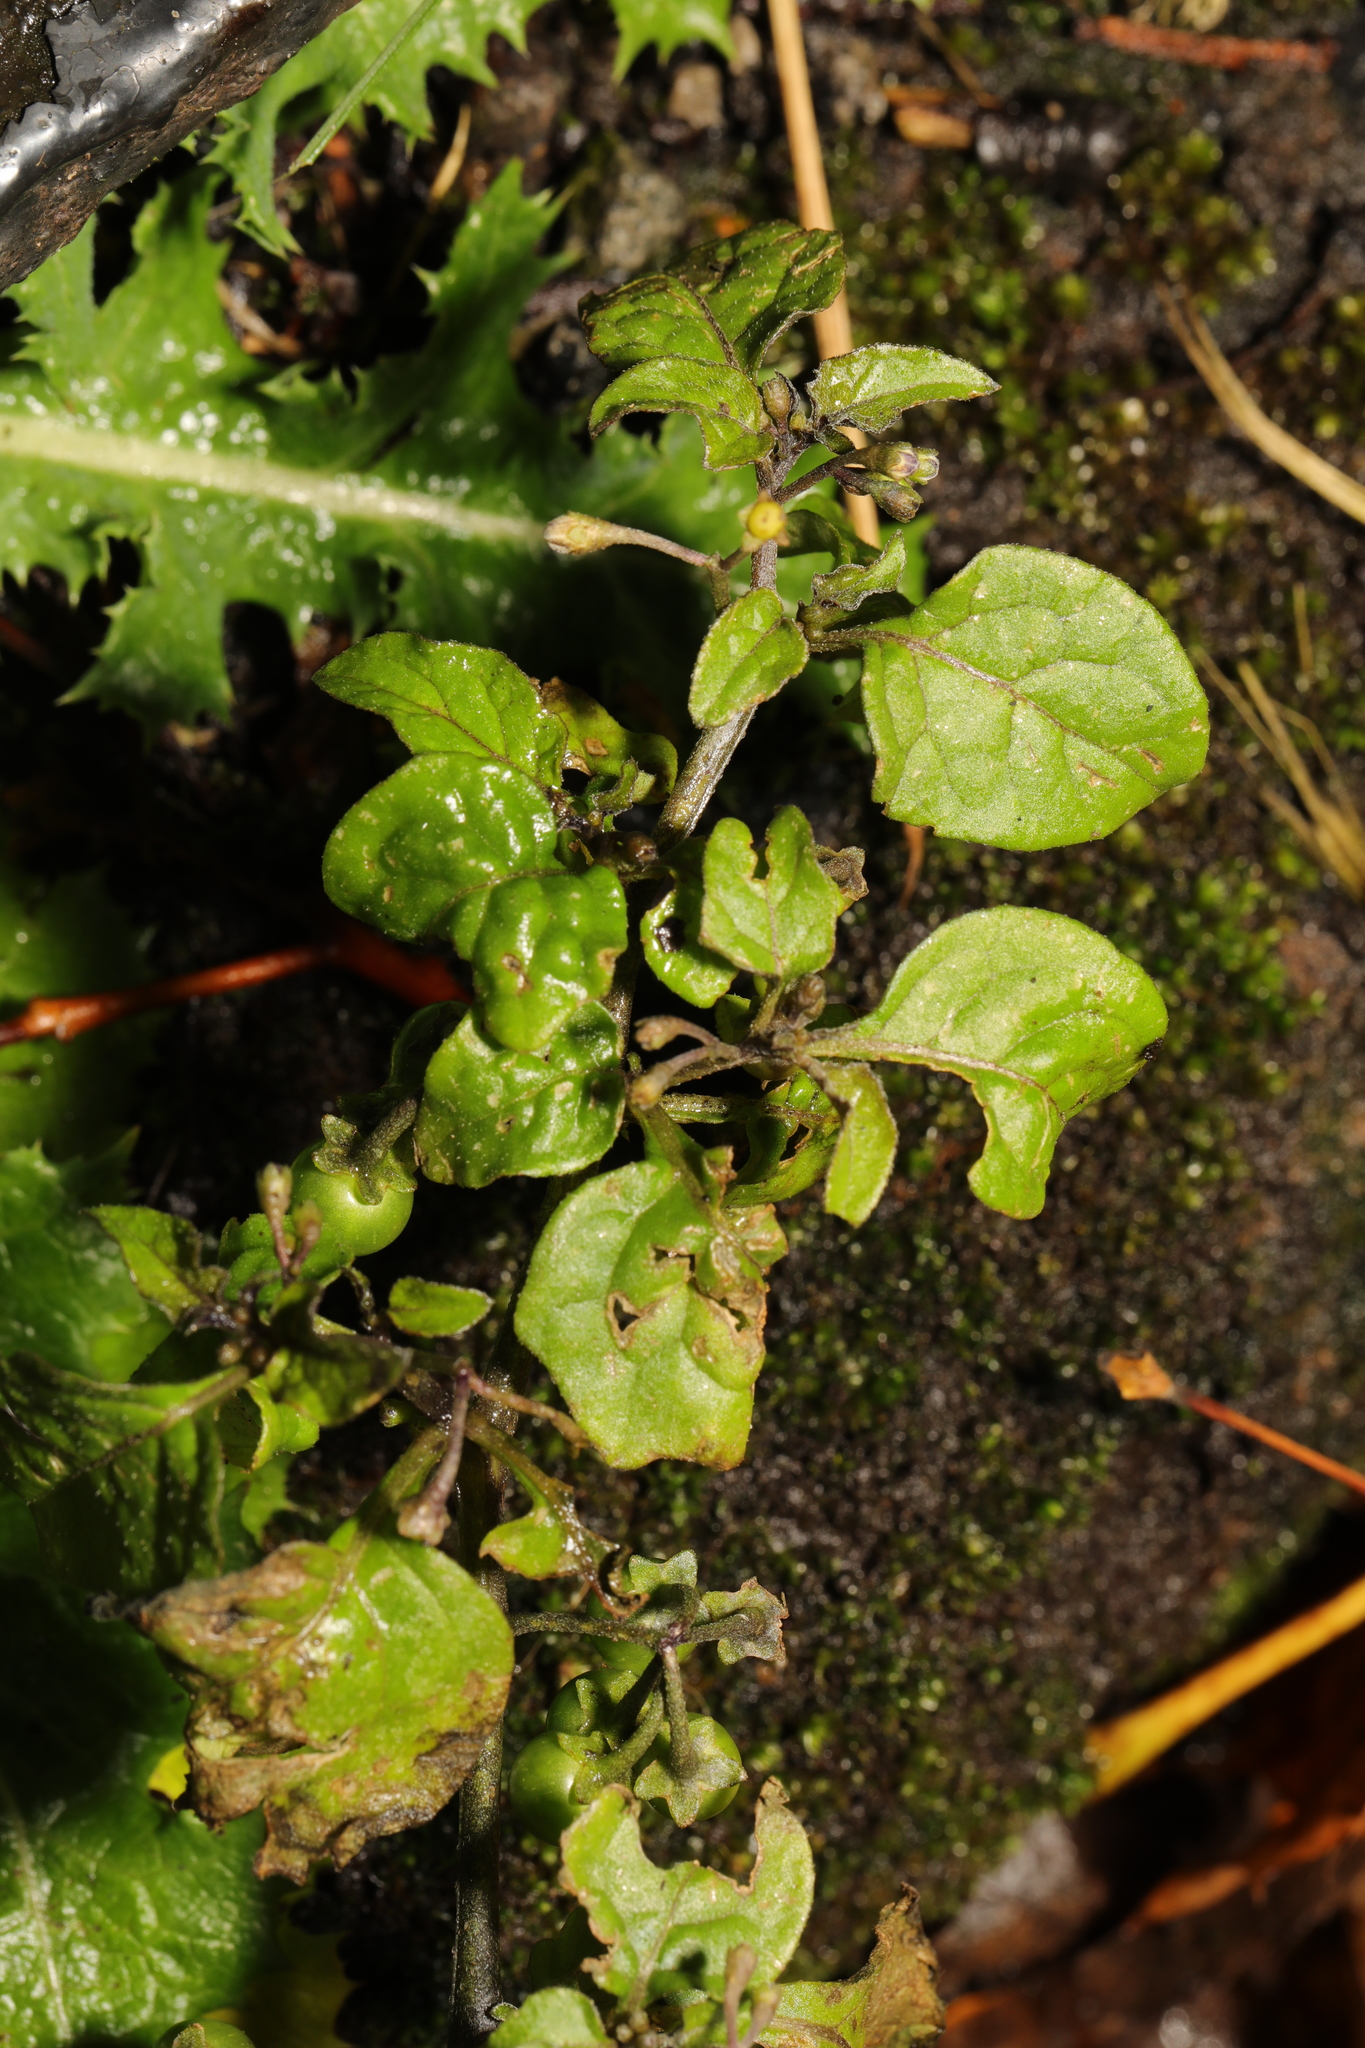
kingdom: Plantae
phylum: Tracheophyta
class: Magnoliopsida
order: Solanales
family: Solanaceae
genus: Solanum
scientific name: Solanum nigrum
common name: Black nightshade
